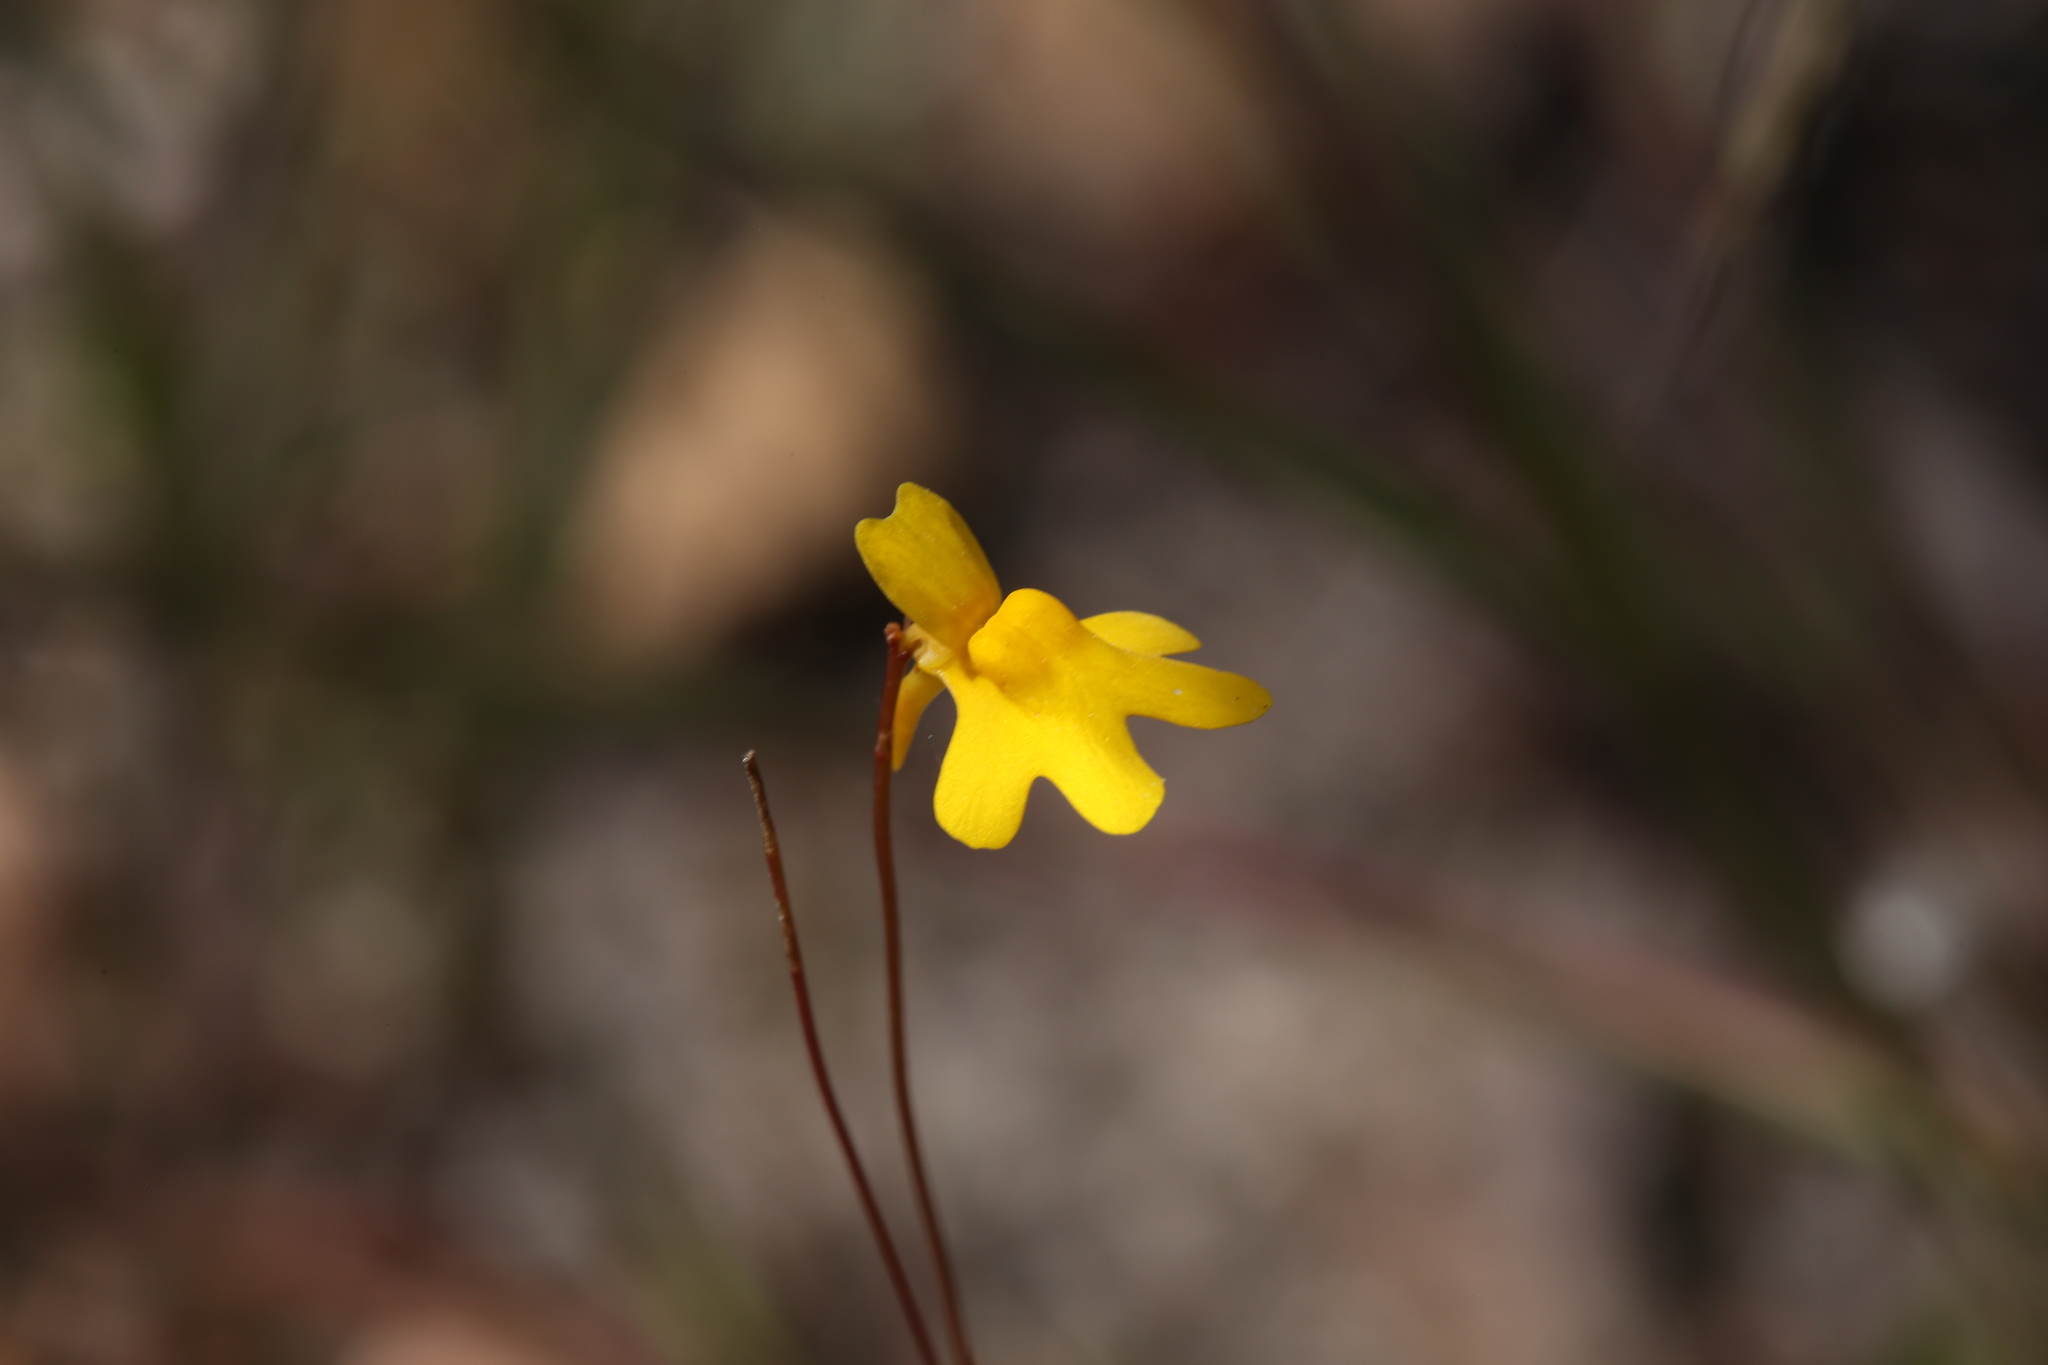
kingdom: Plantae
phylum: Tracheophyta
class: Magnoliopsida
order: Lamiales
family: Lentibulariaceae
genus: Utricularia
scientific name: Utricularia chrysantha
